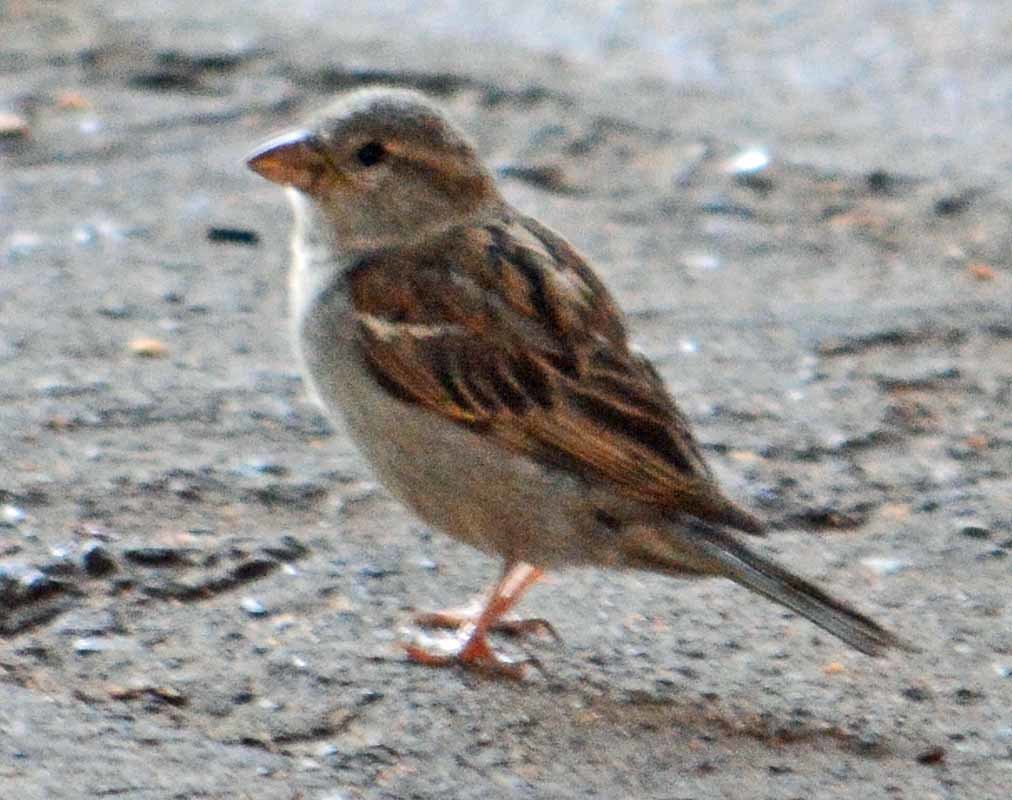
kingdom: Animalia
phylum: Chordata
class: Aves
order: Passeriformes
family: Passeridae
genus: Passer
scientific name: Passer domesticus
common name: House sparrow
